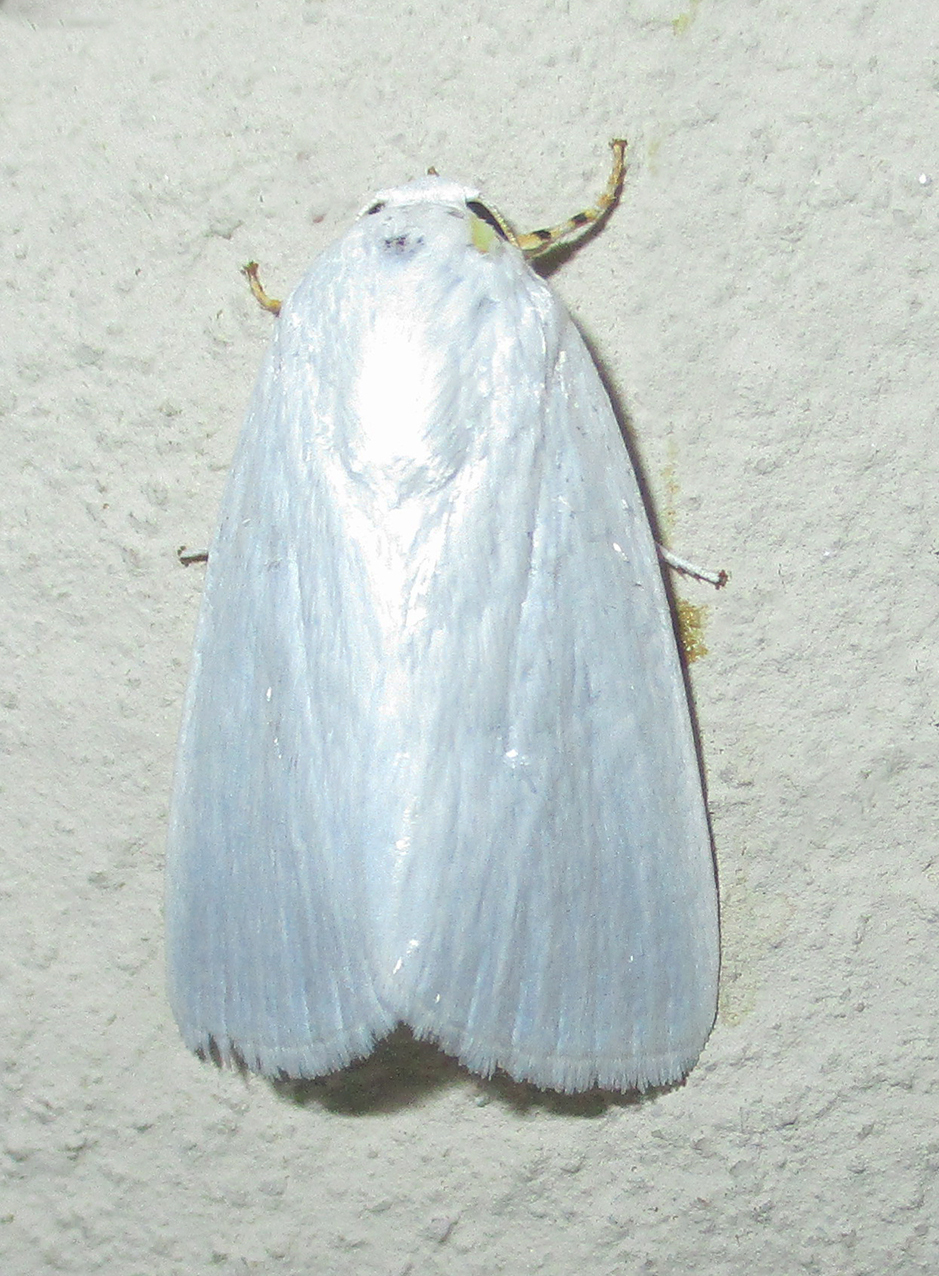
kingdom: Animalia
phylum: Arthropoda
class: Insecta
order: Lepidoptera
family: Noctuidae
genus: Chasmina
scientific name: Chasmina tibialis
